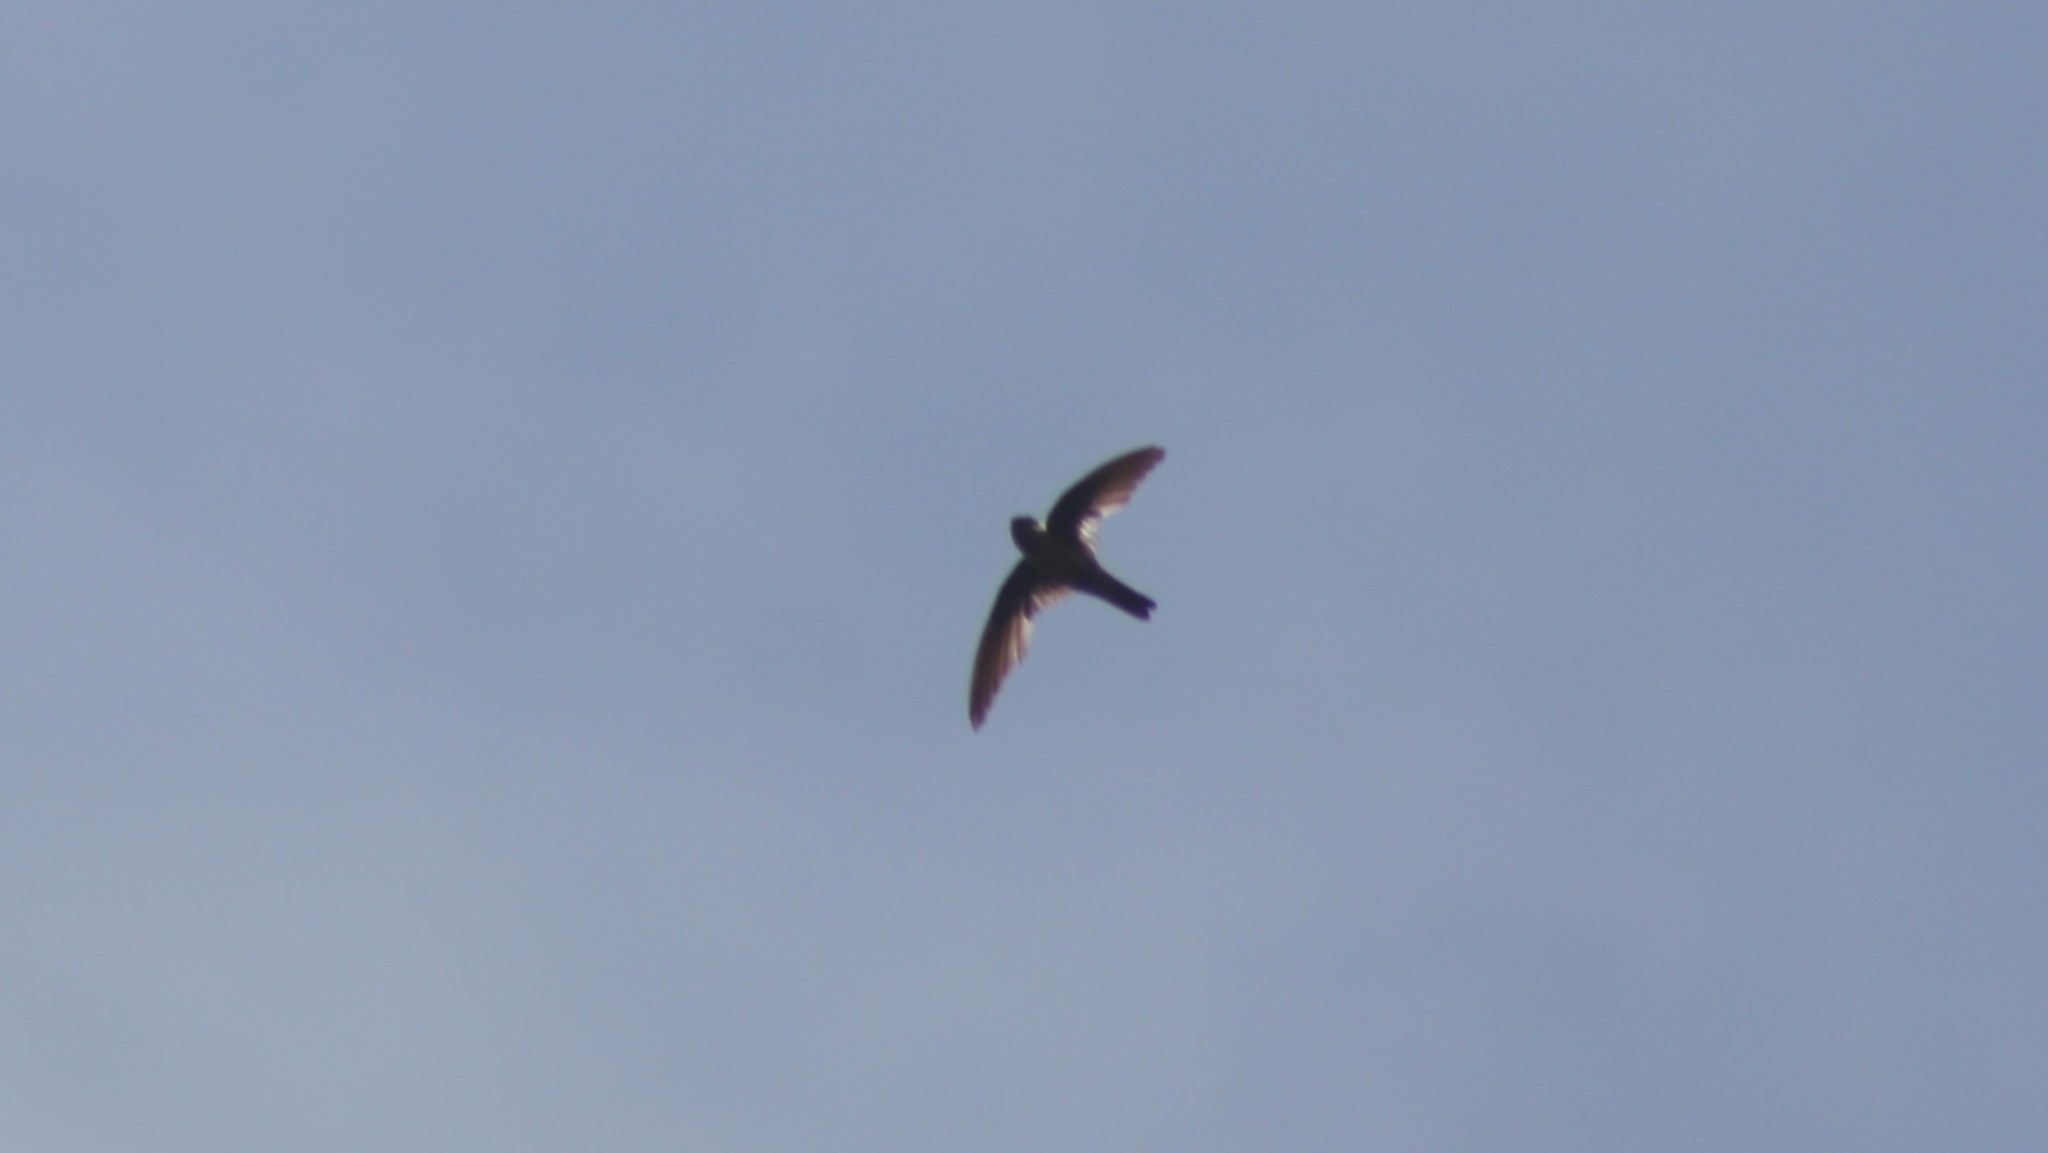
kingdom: Animalia
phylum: Chordata
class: Aves
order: Apodiformes
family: Apodidae
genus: Aerodramus
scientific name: Aerodramus unicolor
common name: Indian swiftlet
